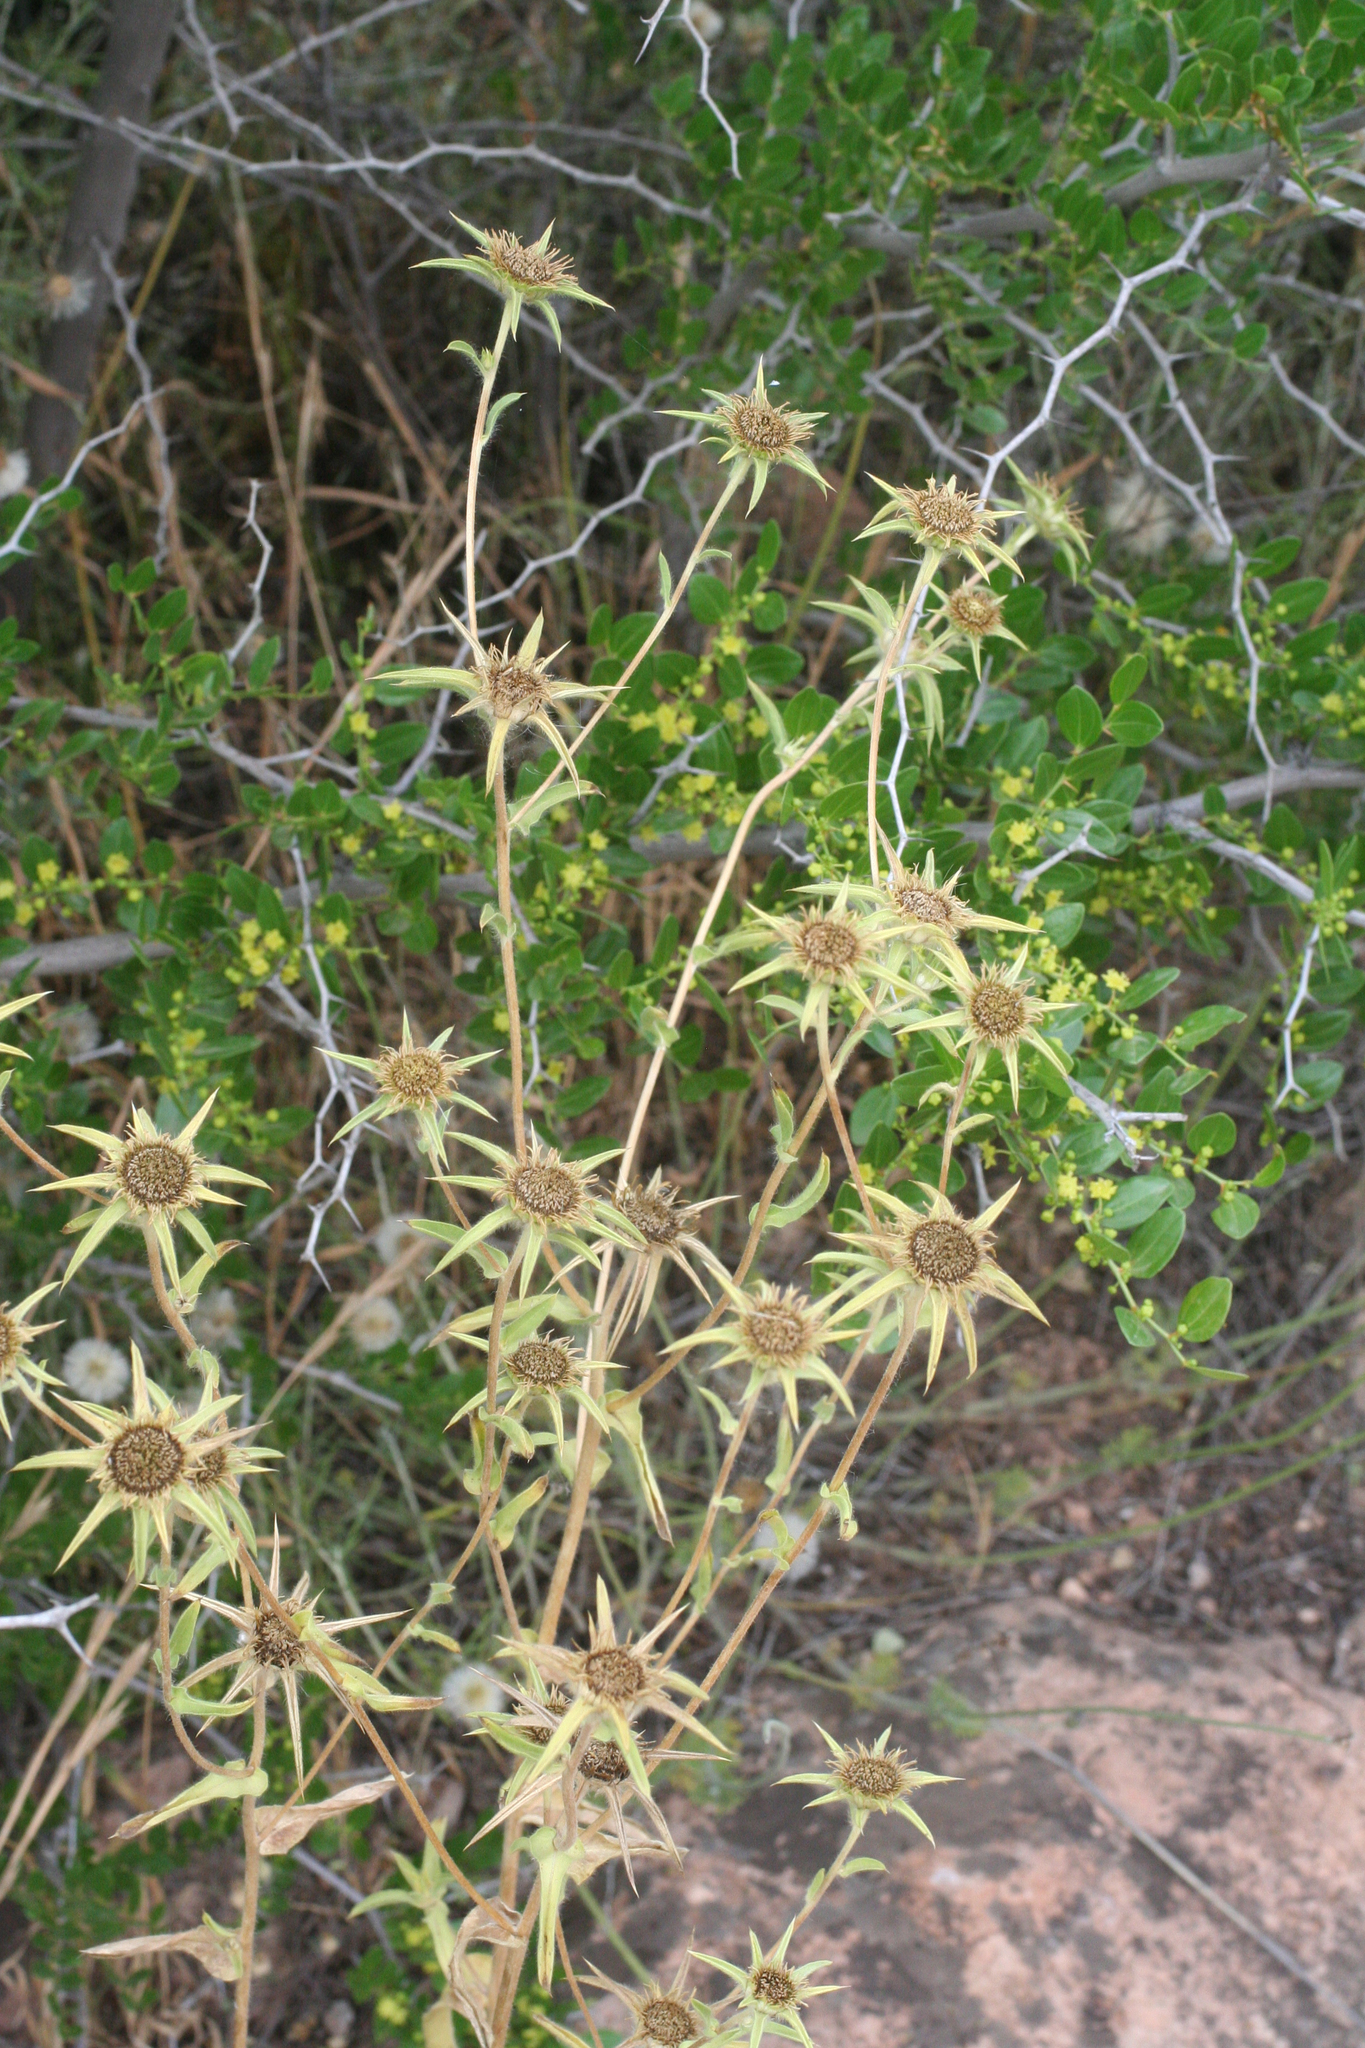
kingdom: Plantae
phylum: Tracheophyta
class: Magnoliopsida
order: Asterales
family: Asteraceae
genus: Pallenis
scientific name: Pallenis spinosa
